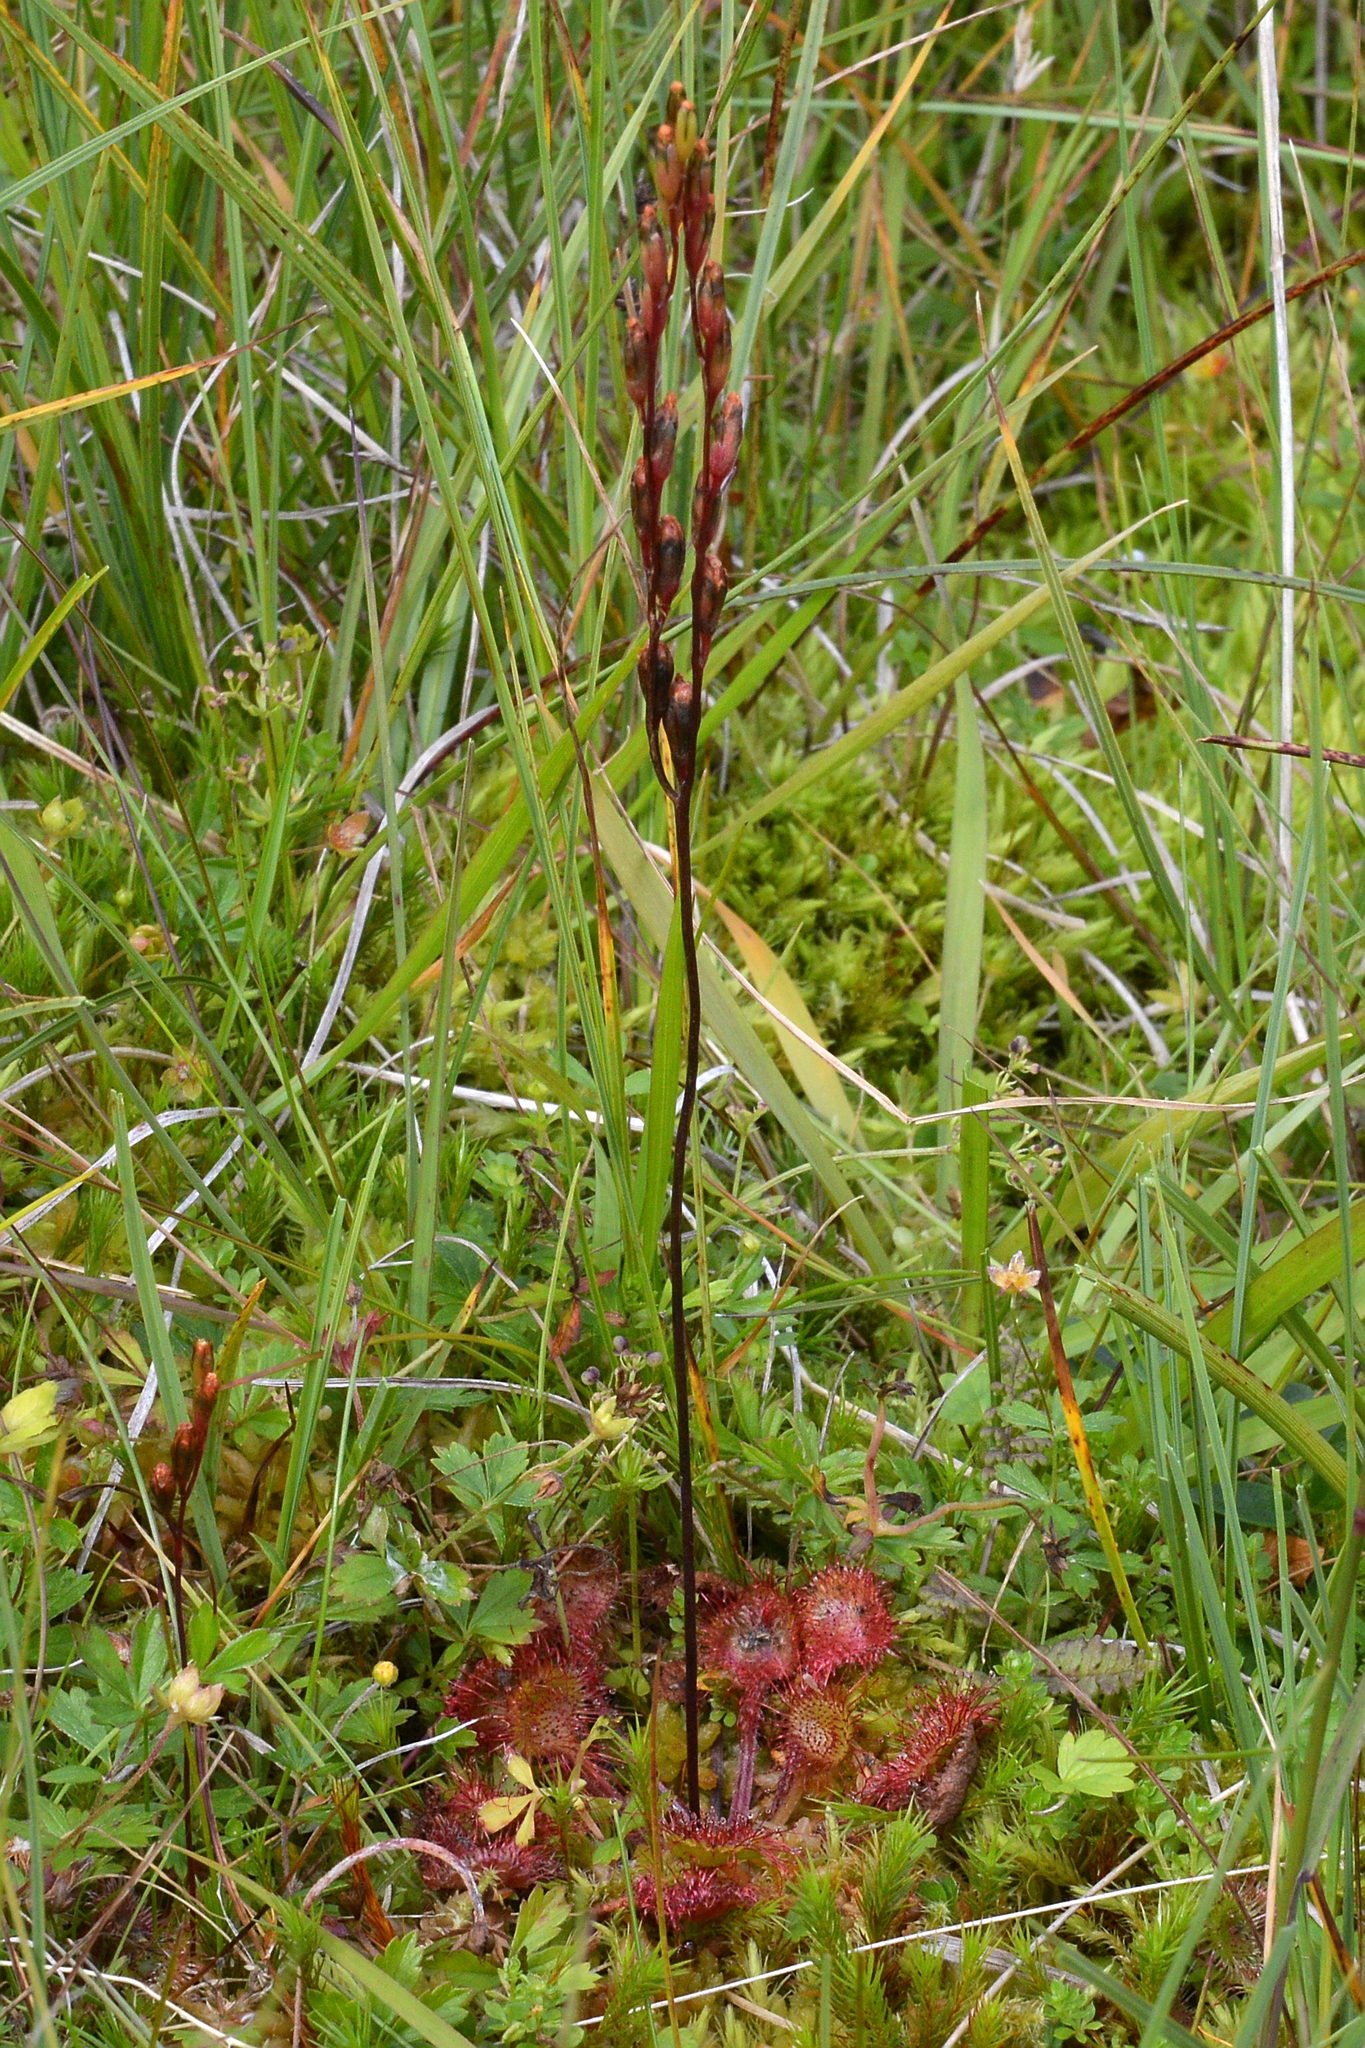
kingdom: Plantae
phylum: Tracheophyta
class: Magnoliopsida
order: Caryophyllales
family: Droseraceae
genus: Drosera
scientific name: Drosera rotundifolia
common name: Round-leaved sundew
